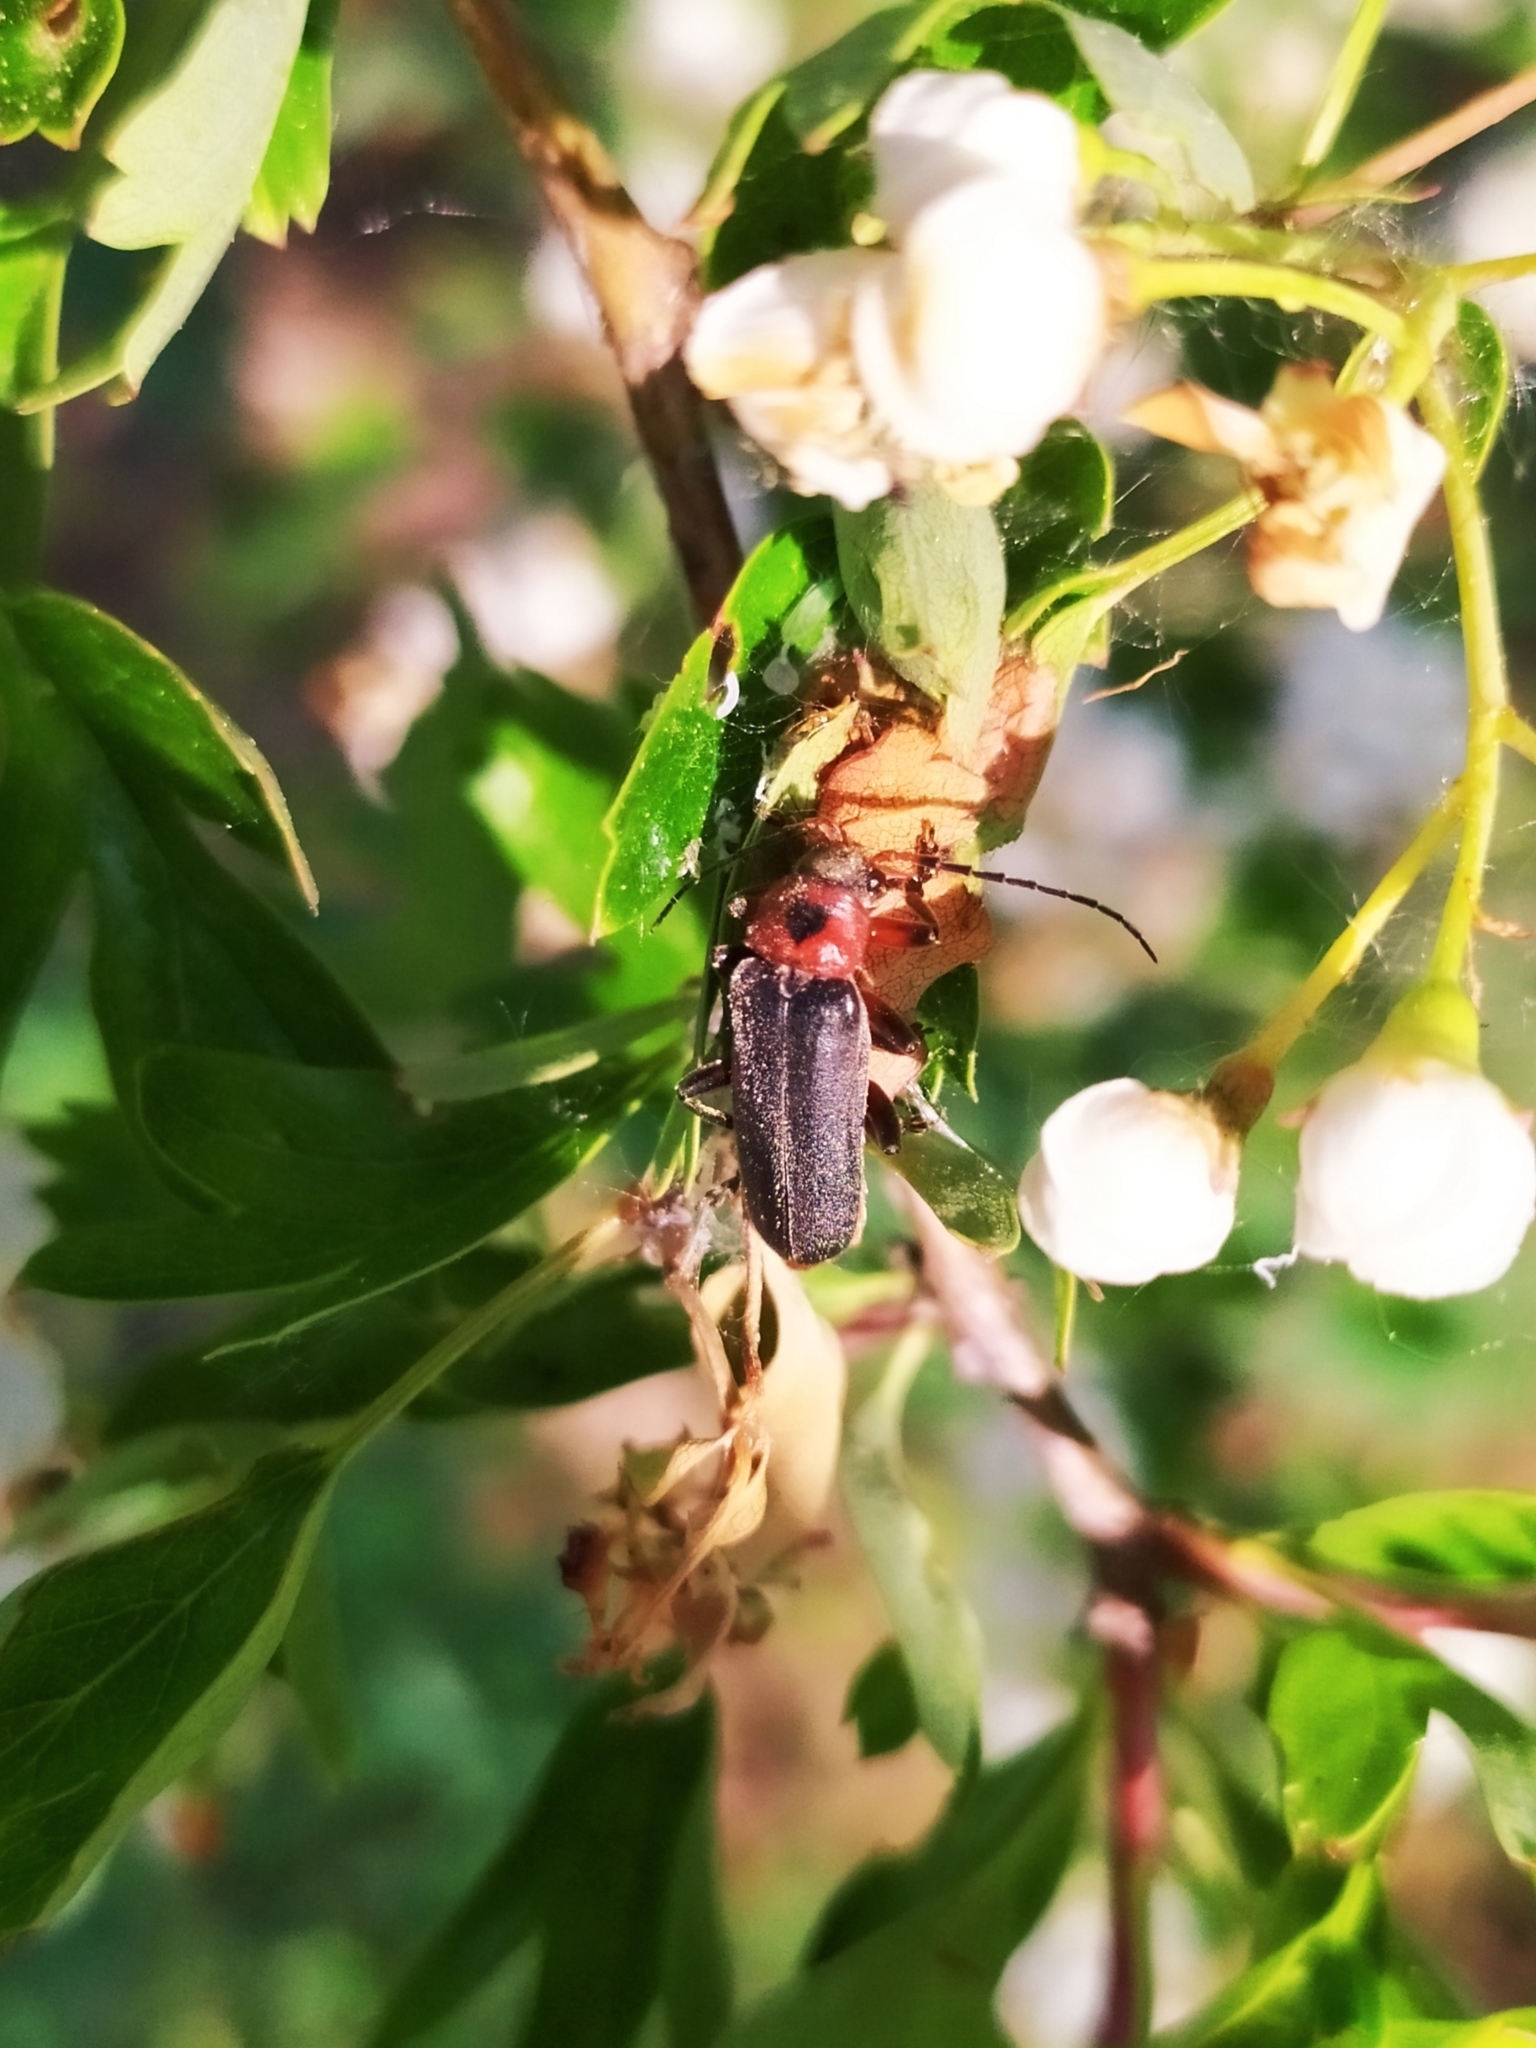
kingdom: Animalia
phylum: Arthropoda
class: Insecta
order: Coleoptera
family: Cantharidae
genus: Cantharis
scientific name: Cantharis rustica
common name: Soldier beetle
